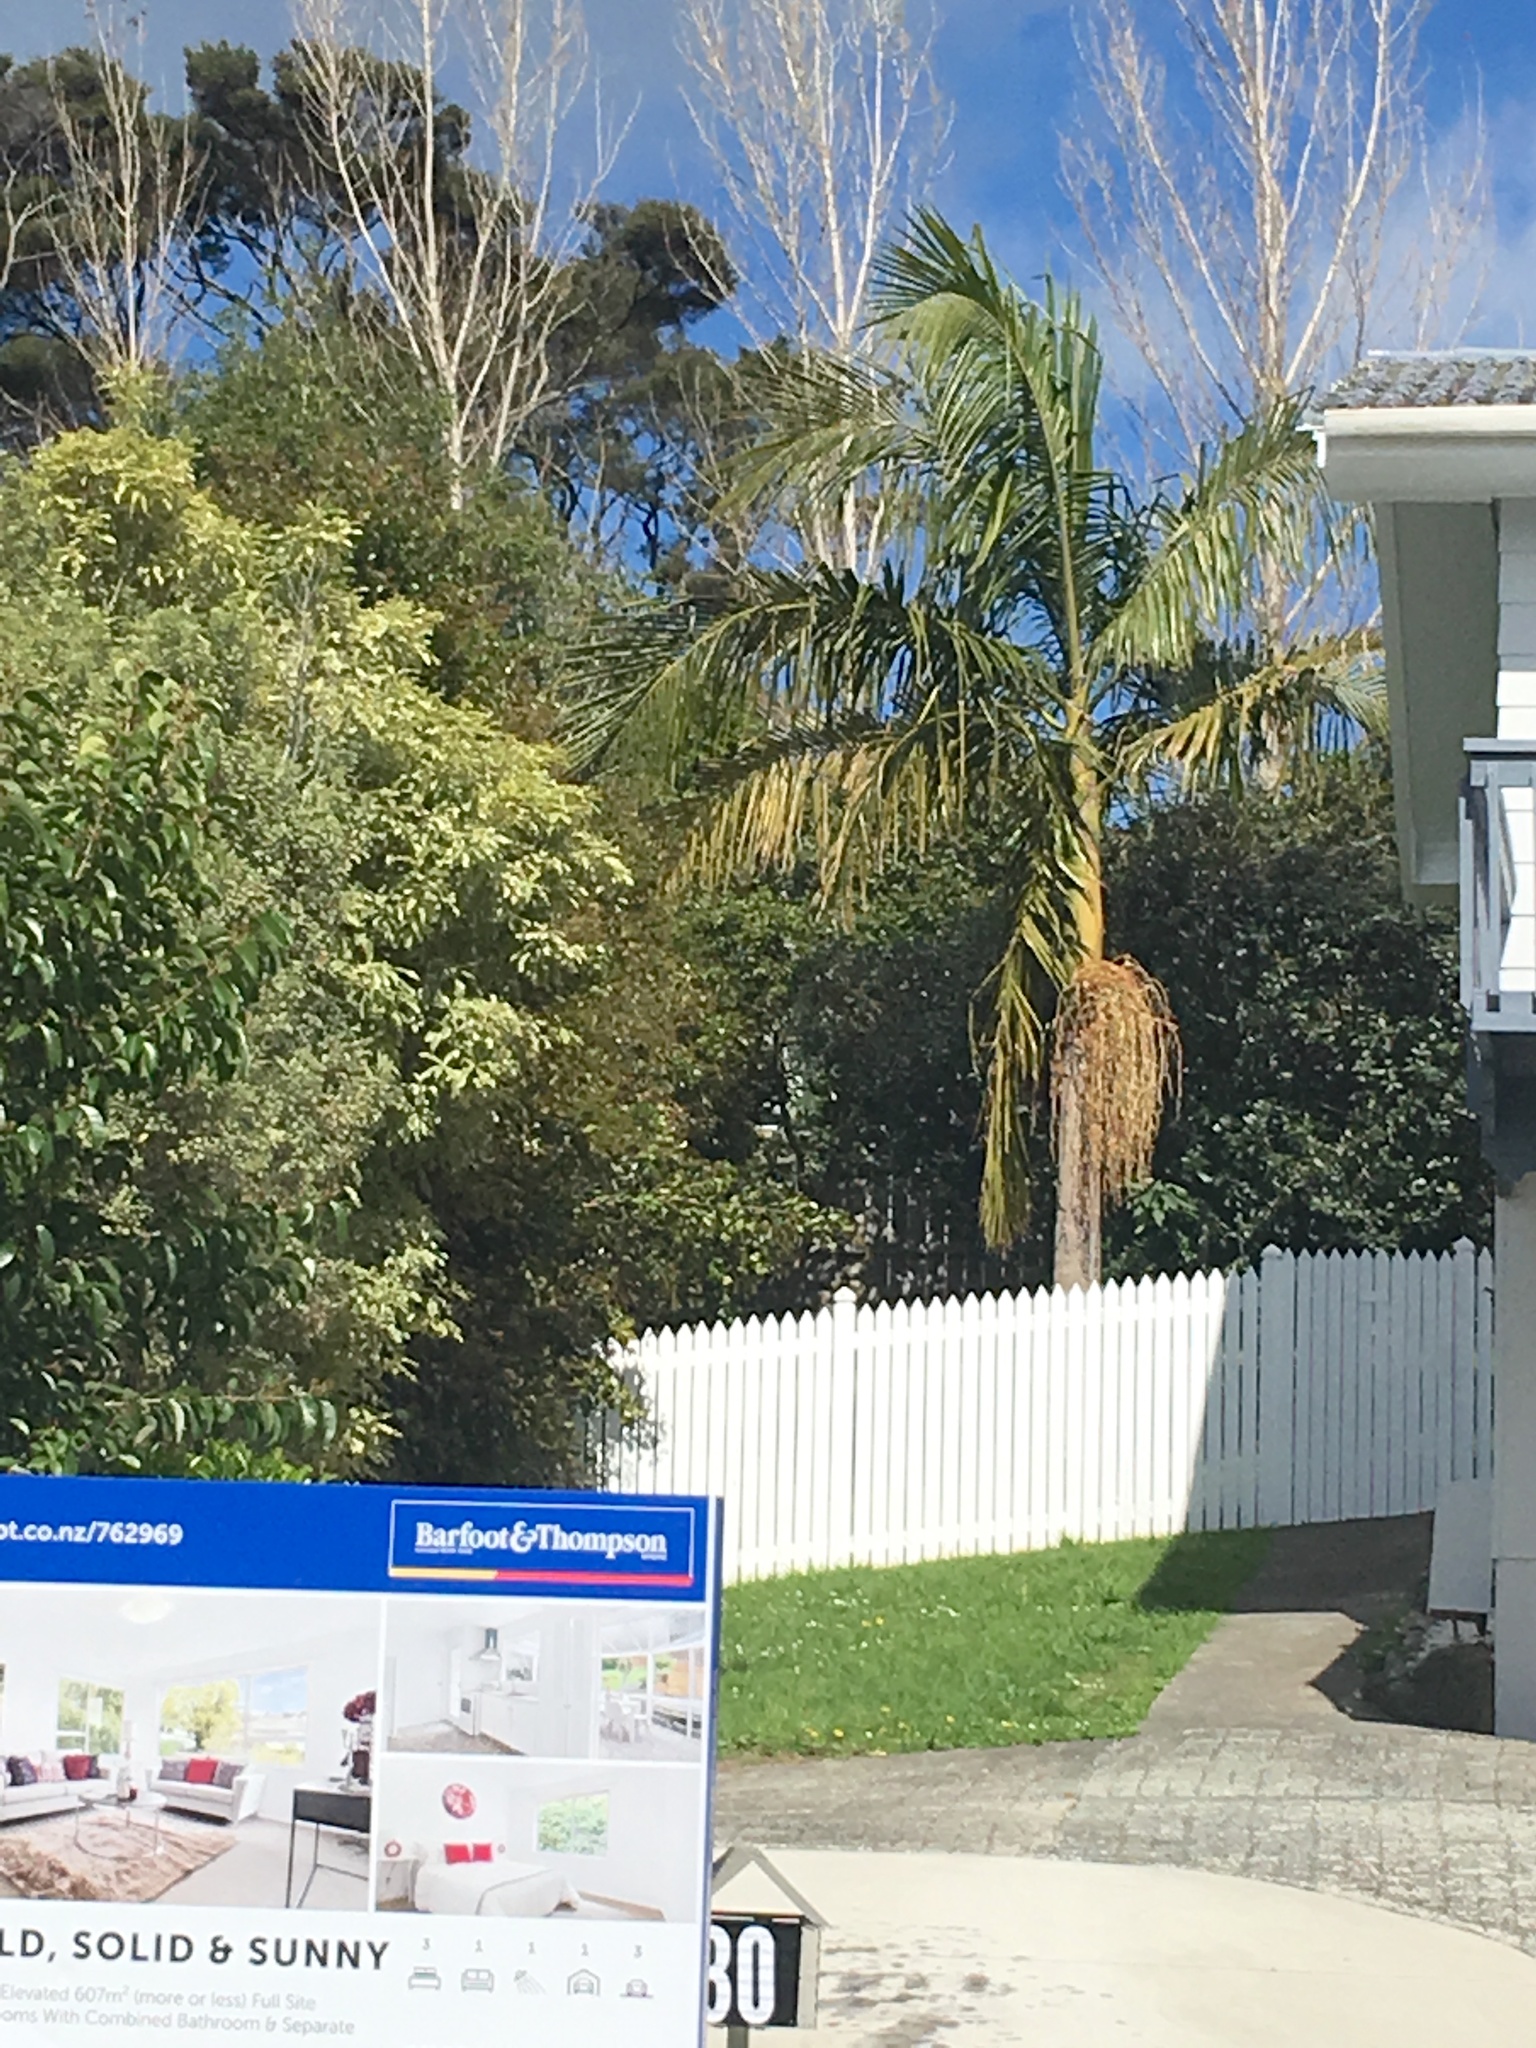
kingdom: Plantae
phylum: Tracheophyta
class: Liliopsida
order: Arecales
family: Arecaceae
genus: Archontophoenix
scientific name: Archontophoenix cunninghamiana
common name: Piccabeen bangalow palm
